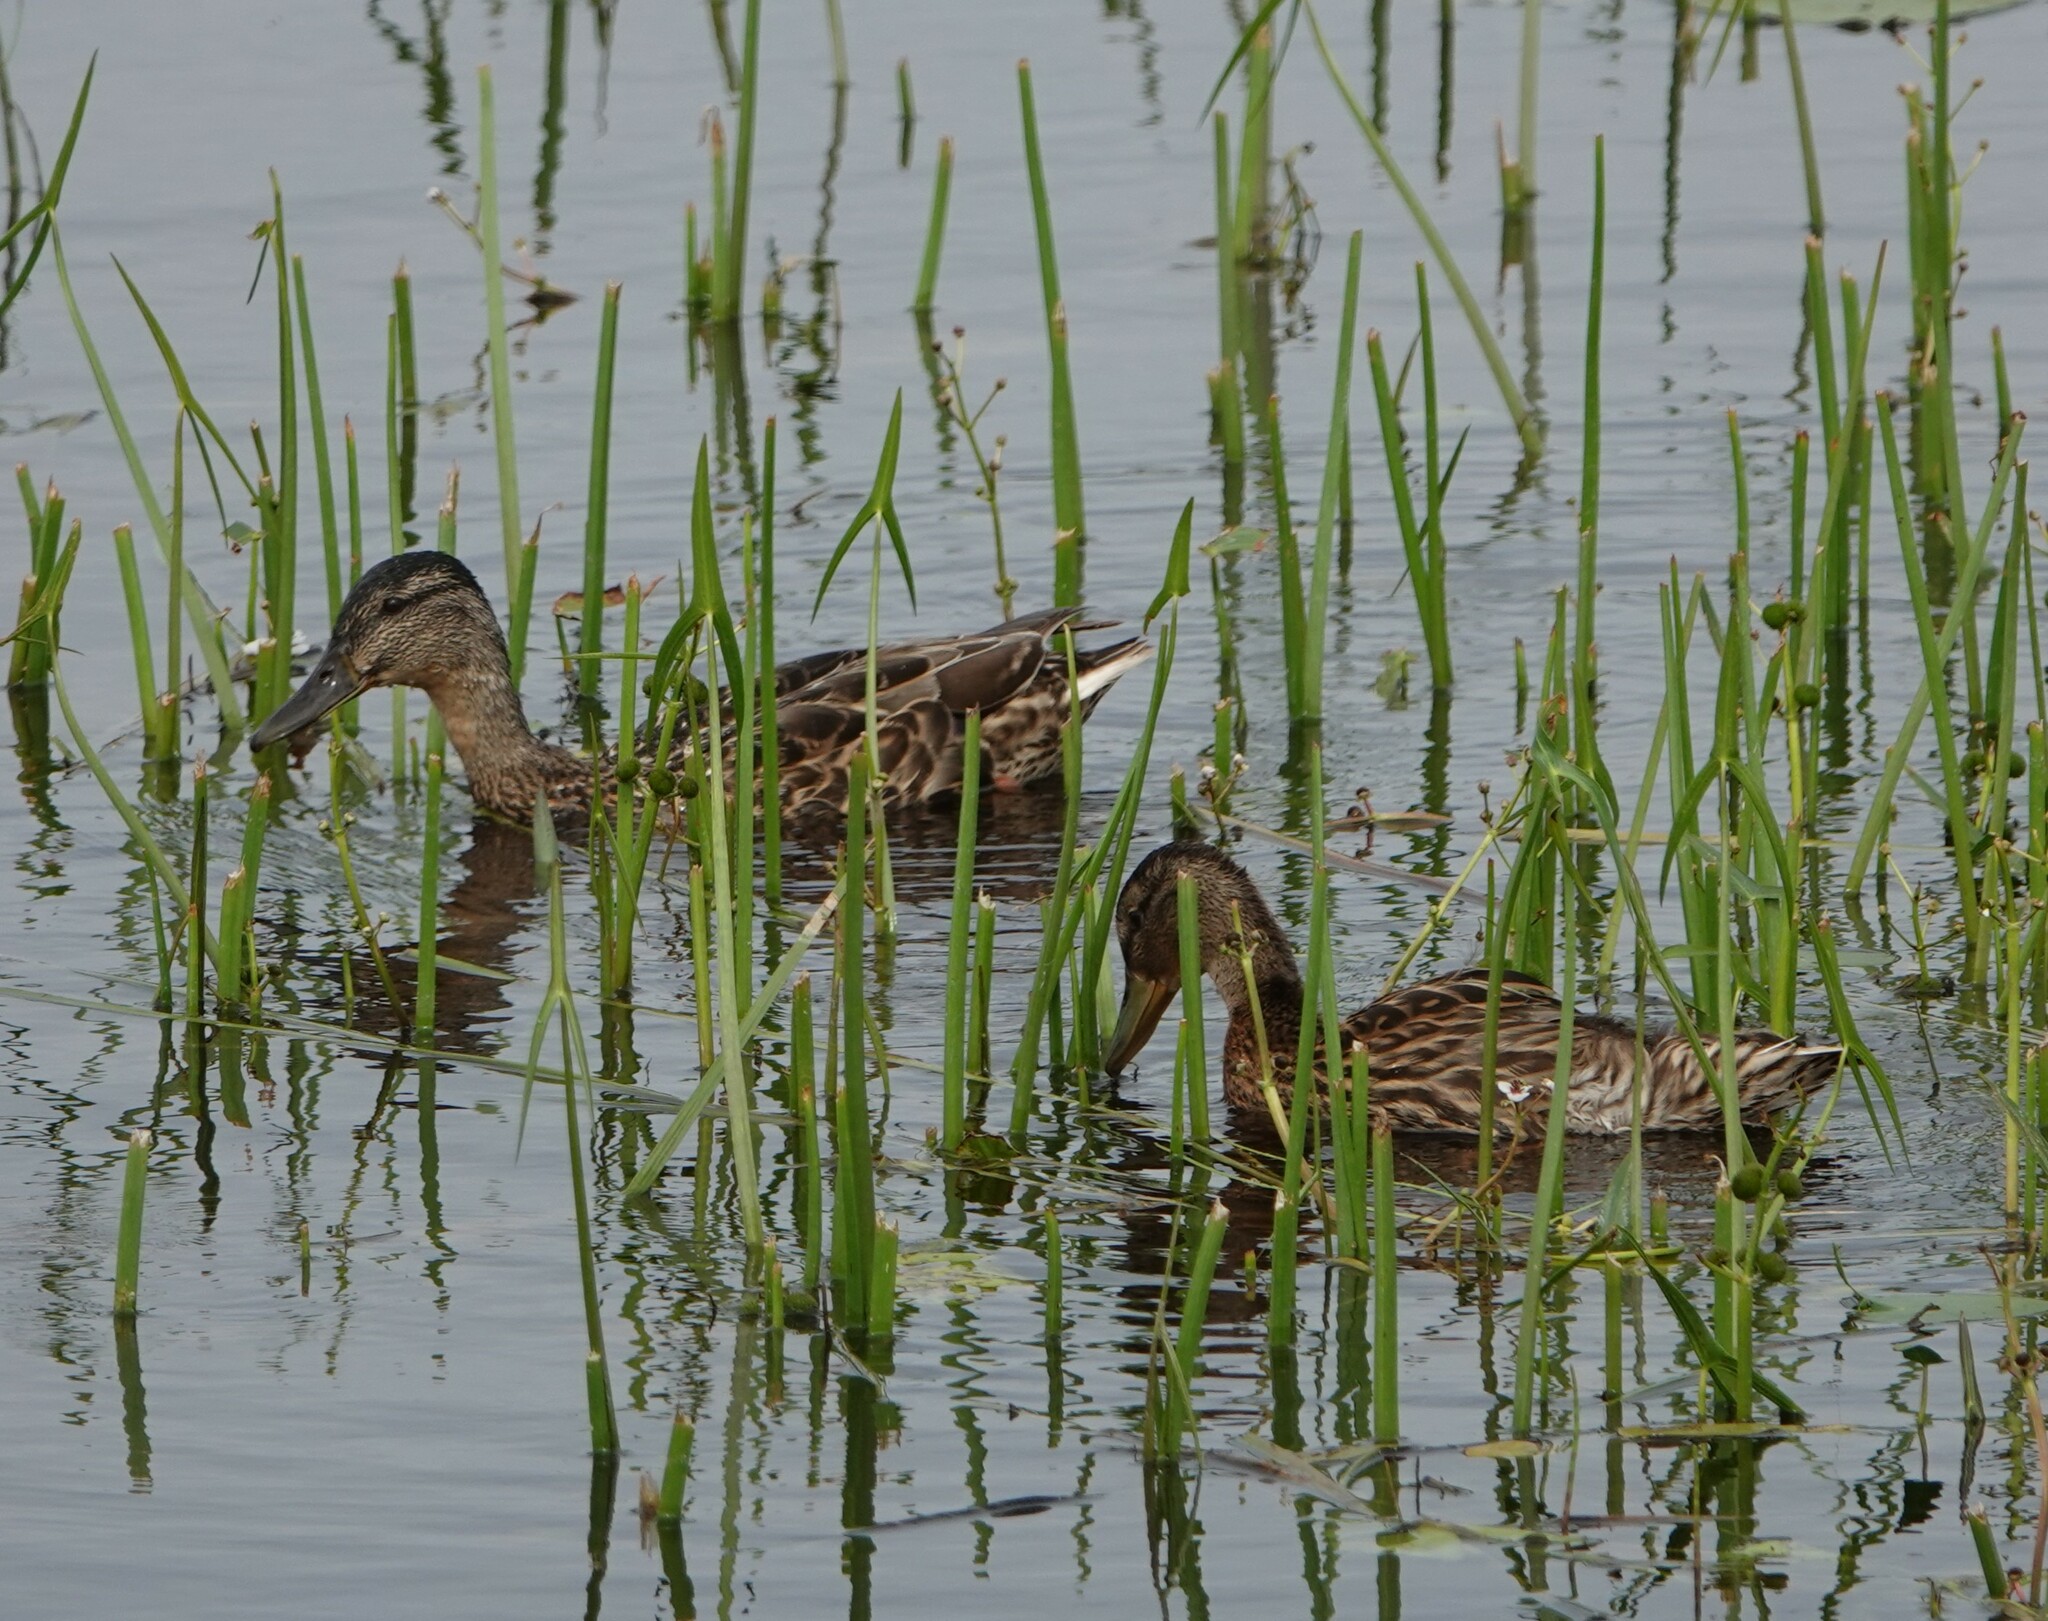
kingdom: Animalia
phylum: Chordata
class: Aves
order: Anseriformes
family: Anatidae
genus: Anas
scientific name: Anas platyrhynchos
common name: Mallard
